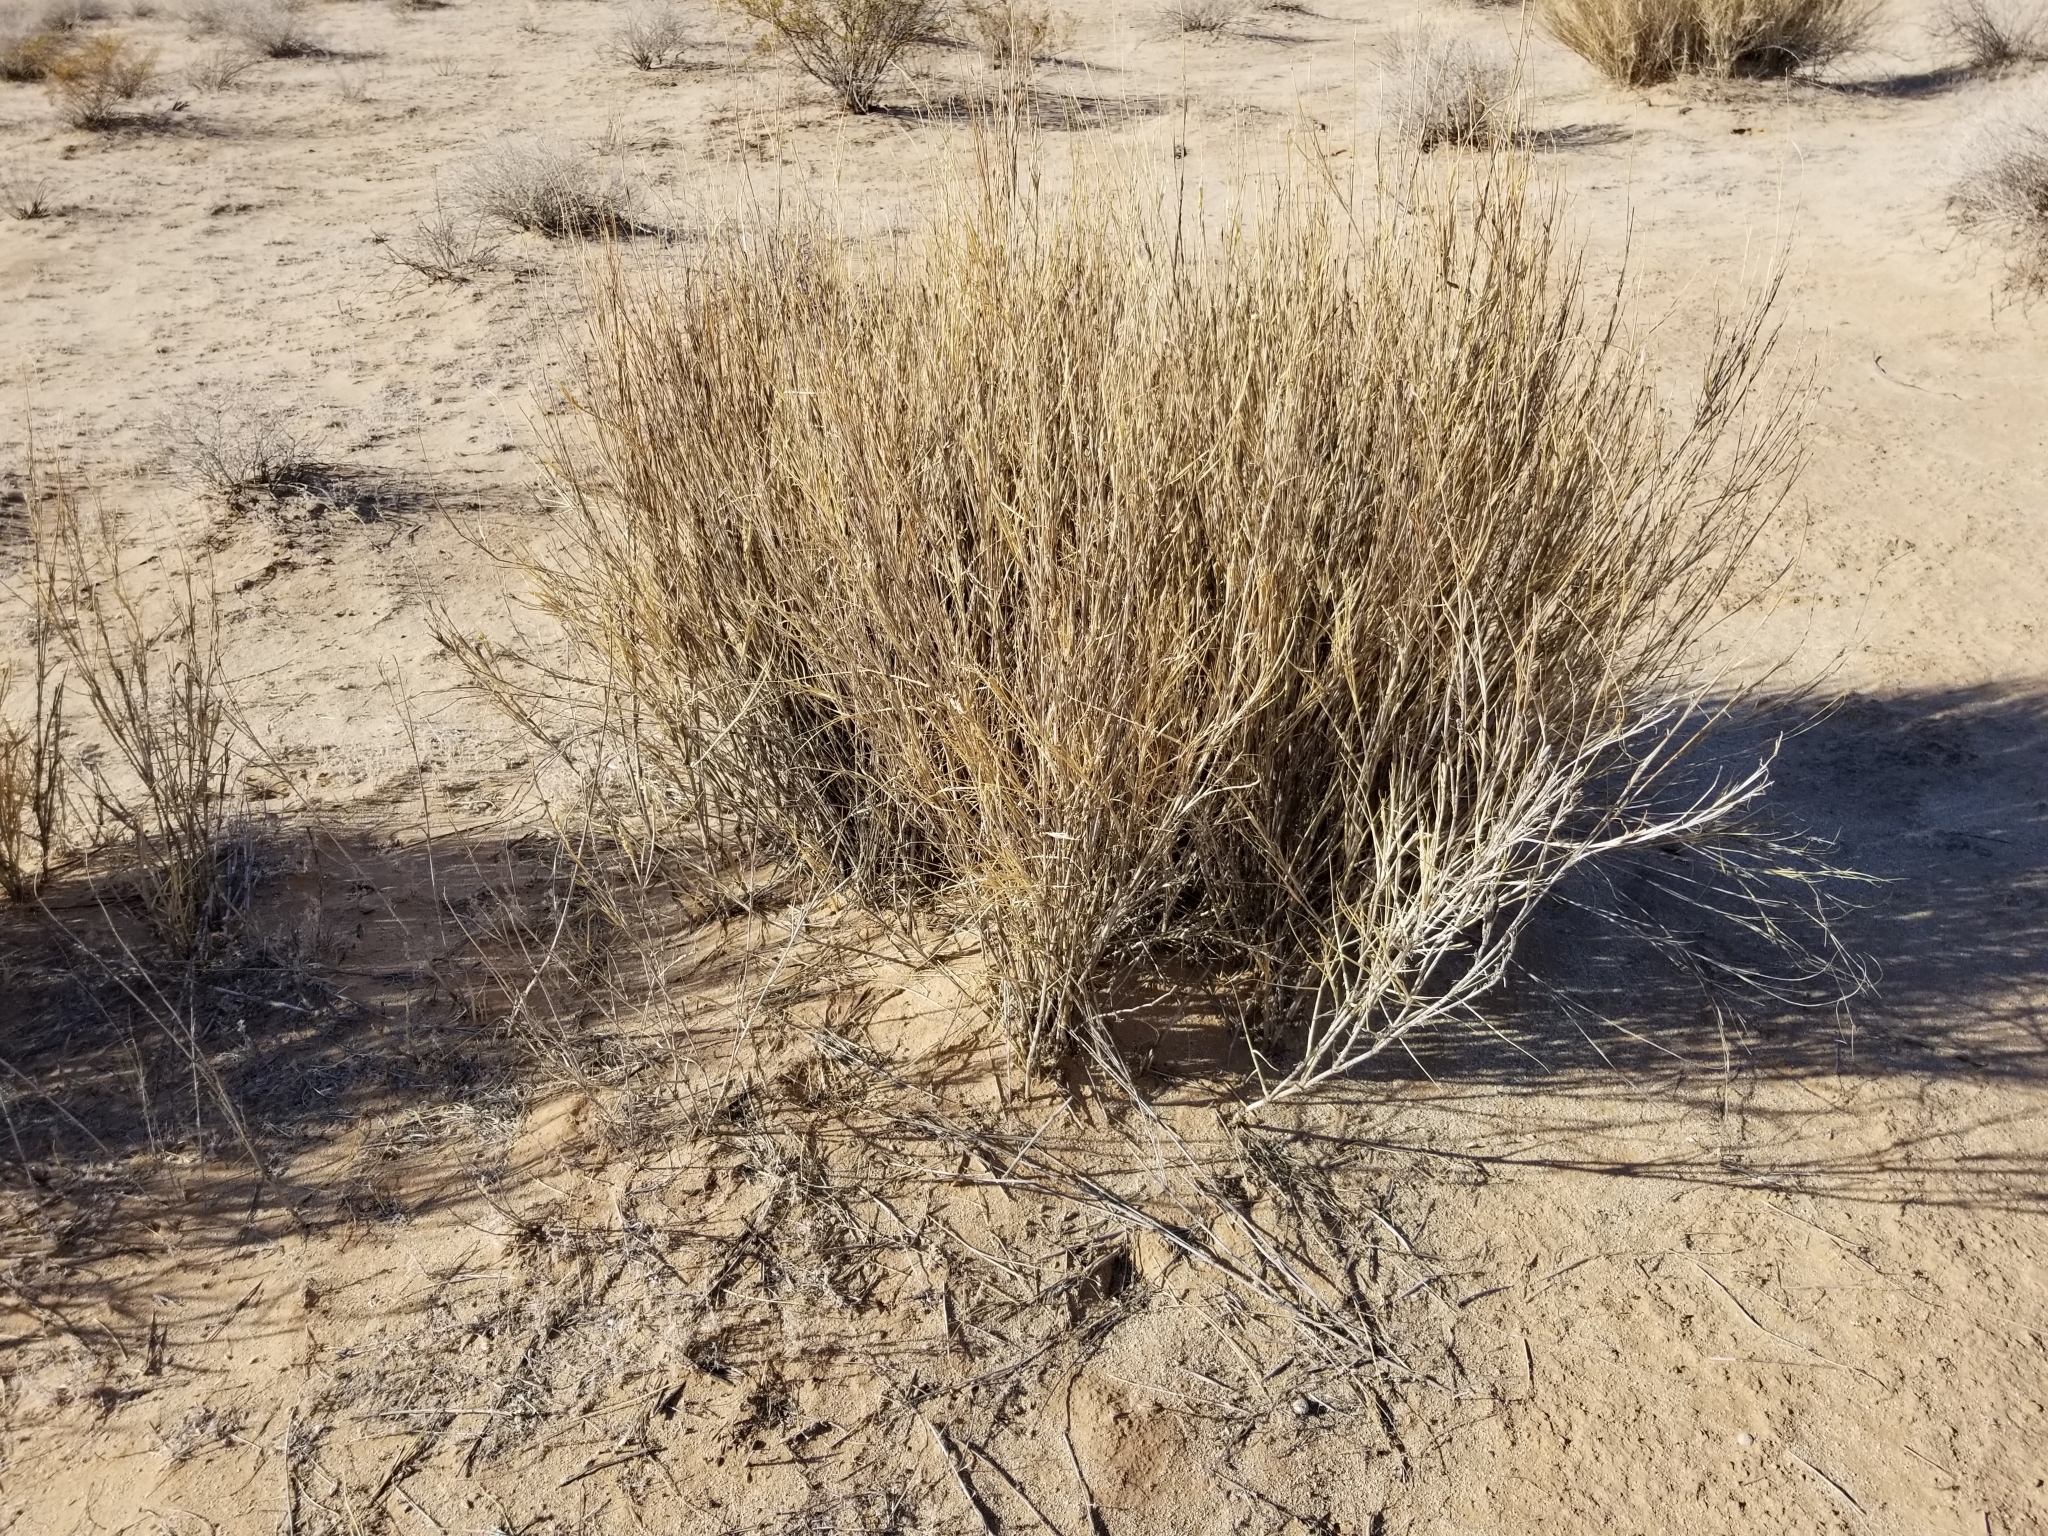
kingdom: Plantae
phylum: Tracheophyta
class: Liliopsida
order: Poales
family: Poaceae
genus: Hilaria
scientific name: Hilaria rigida
